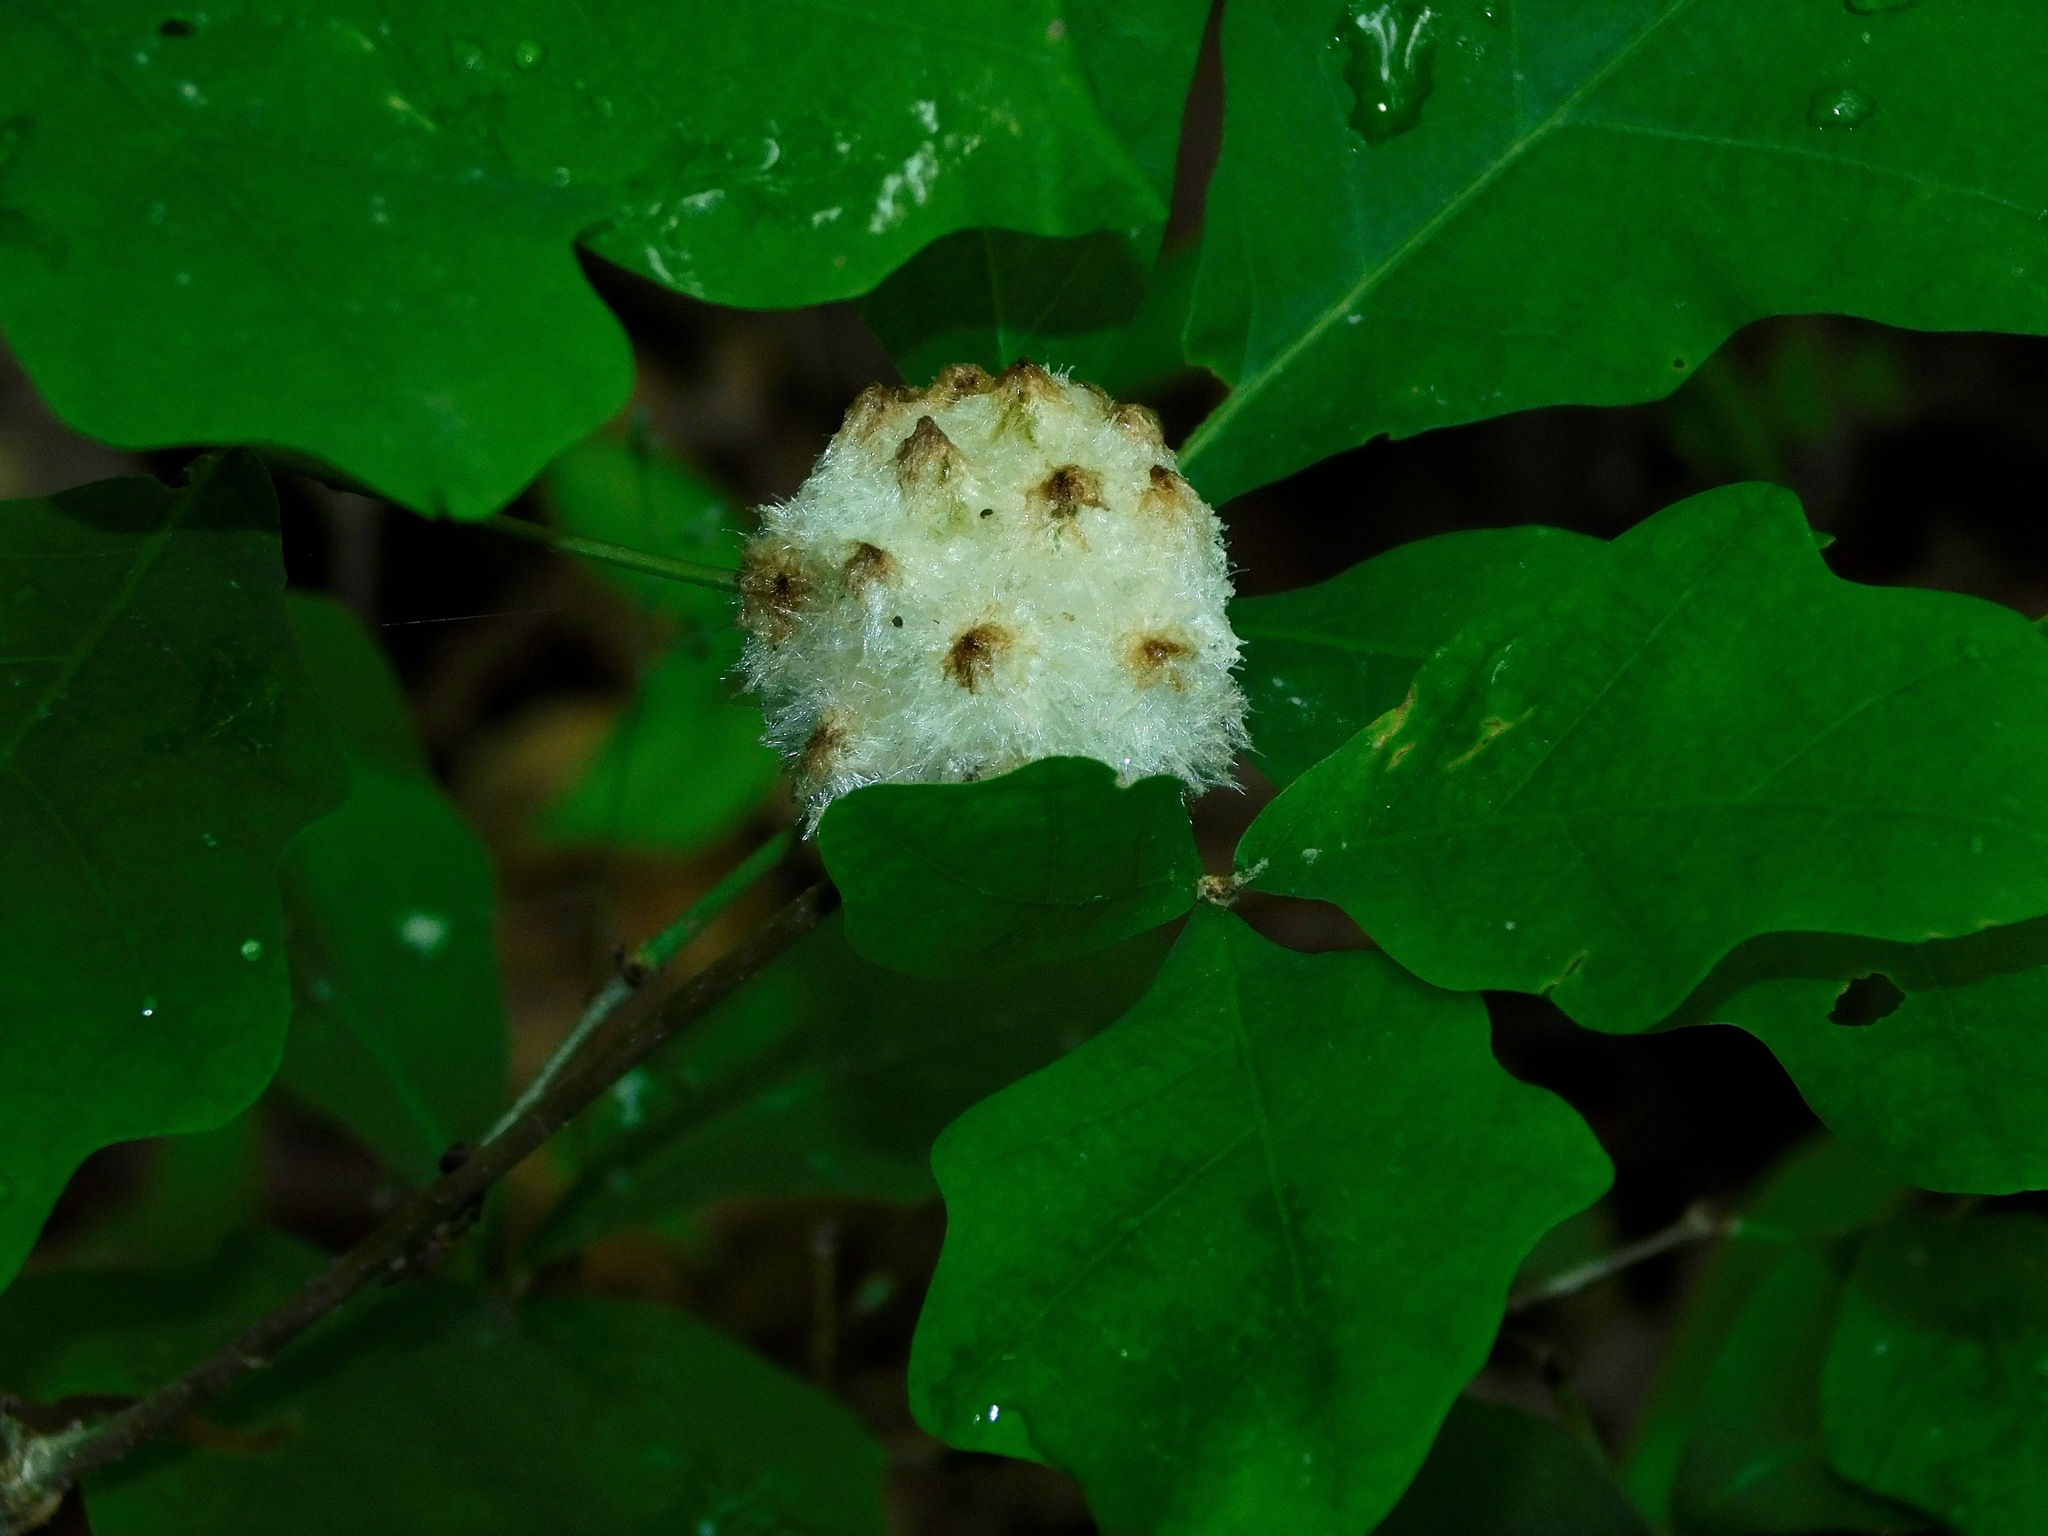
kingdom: Animalia
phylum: Arthropoda
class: Insecta
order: Hymenoptera
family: Cynipidae
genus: Callirhytis
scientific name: Callirhytis
